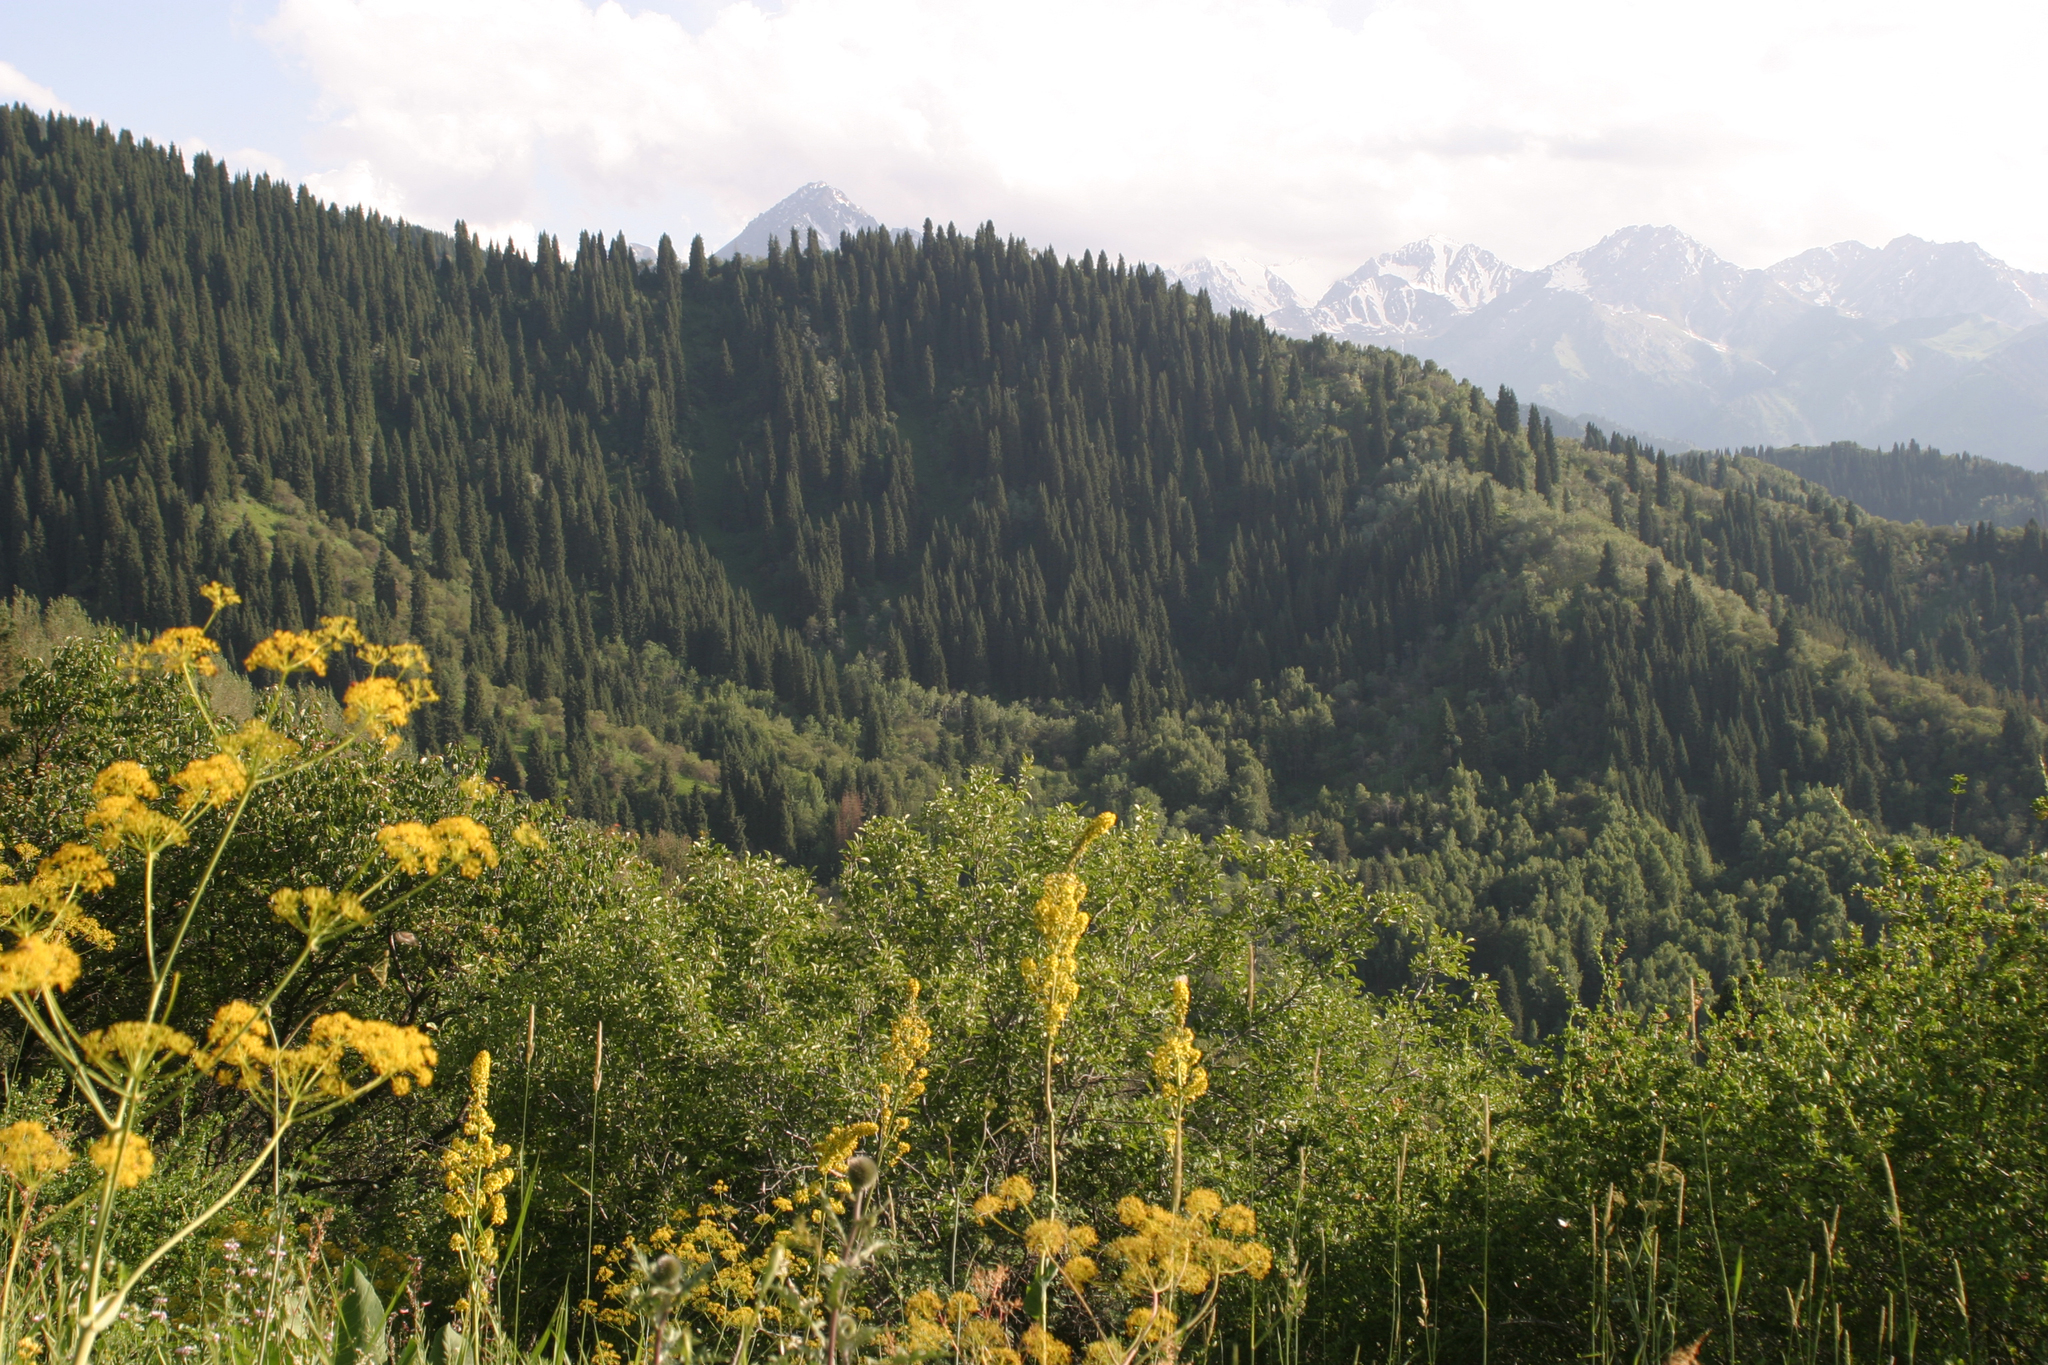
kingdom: Plantae
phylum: Tracheophyta
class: Pinopsida
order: Pinales
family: Pinaceae
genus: Picea
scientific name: Picea schrenkiana
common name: Asian spruce
